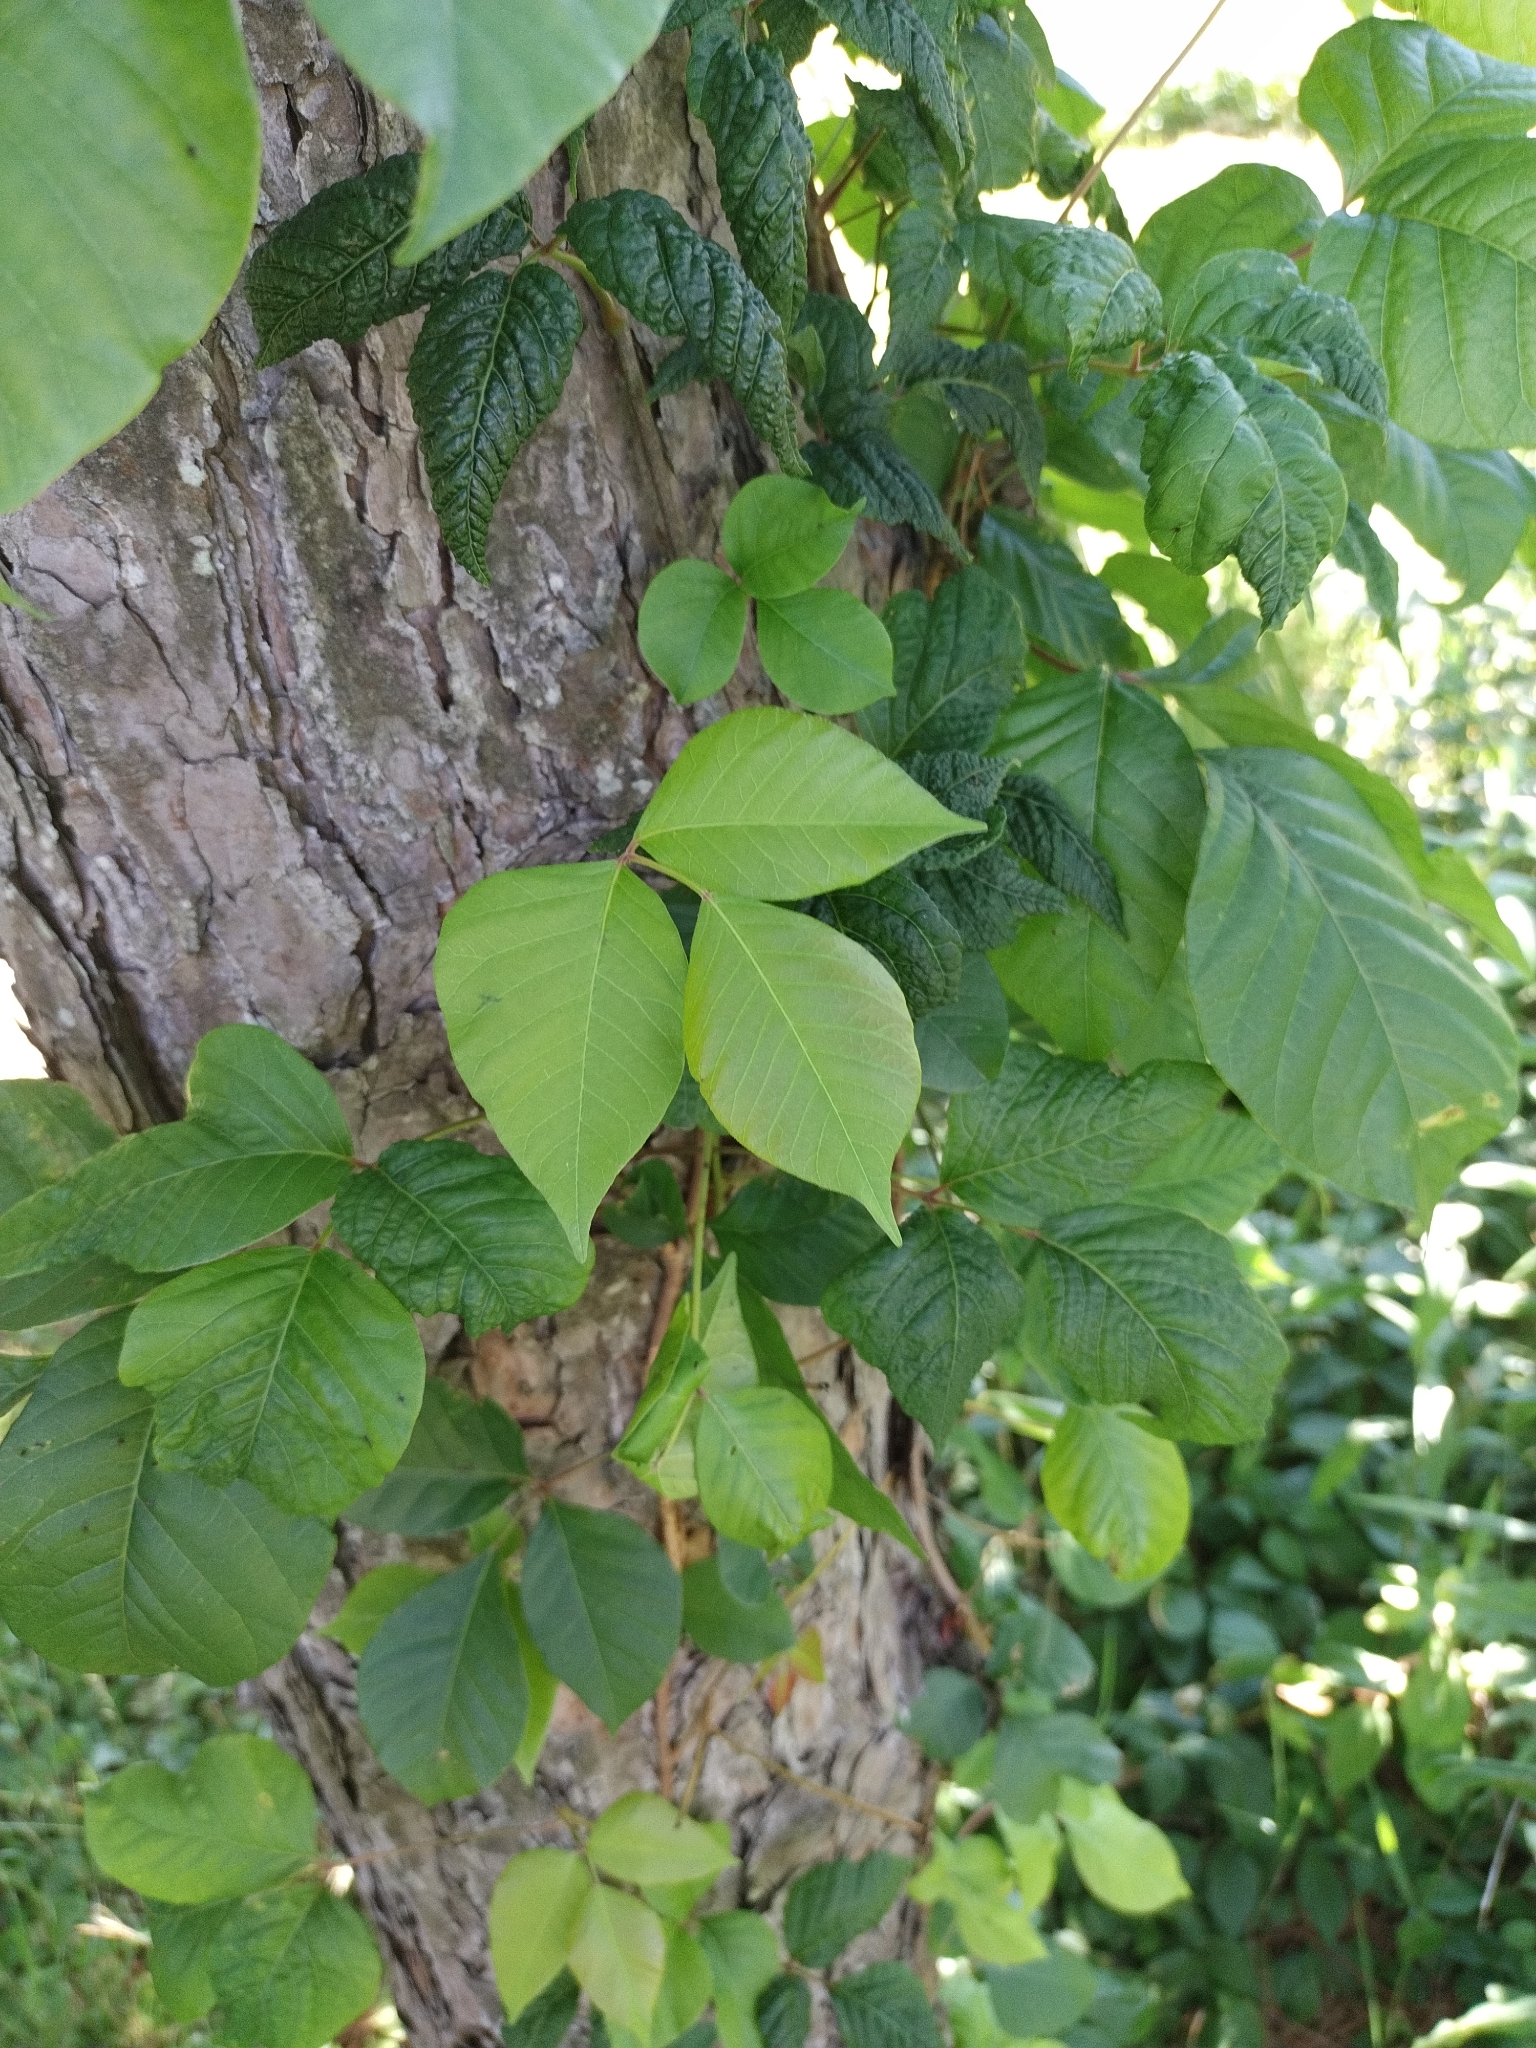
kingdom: Plantae
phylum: Tracheophyta
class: Magnoliopsida
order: Sapindales
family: Anacardiaceae
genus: Toxicodendron
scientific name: Toxicodendron radicans
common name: Poison ivy
